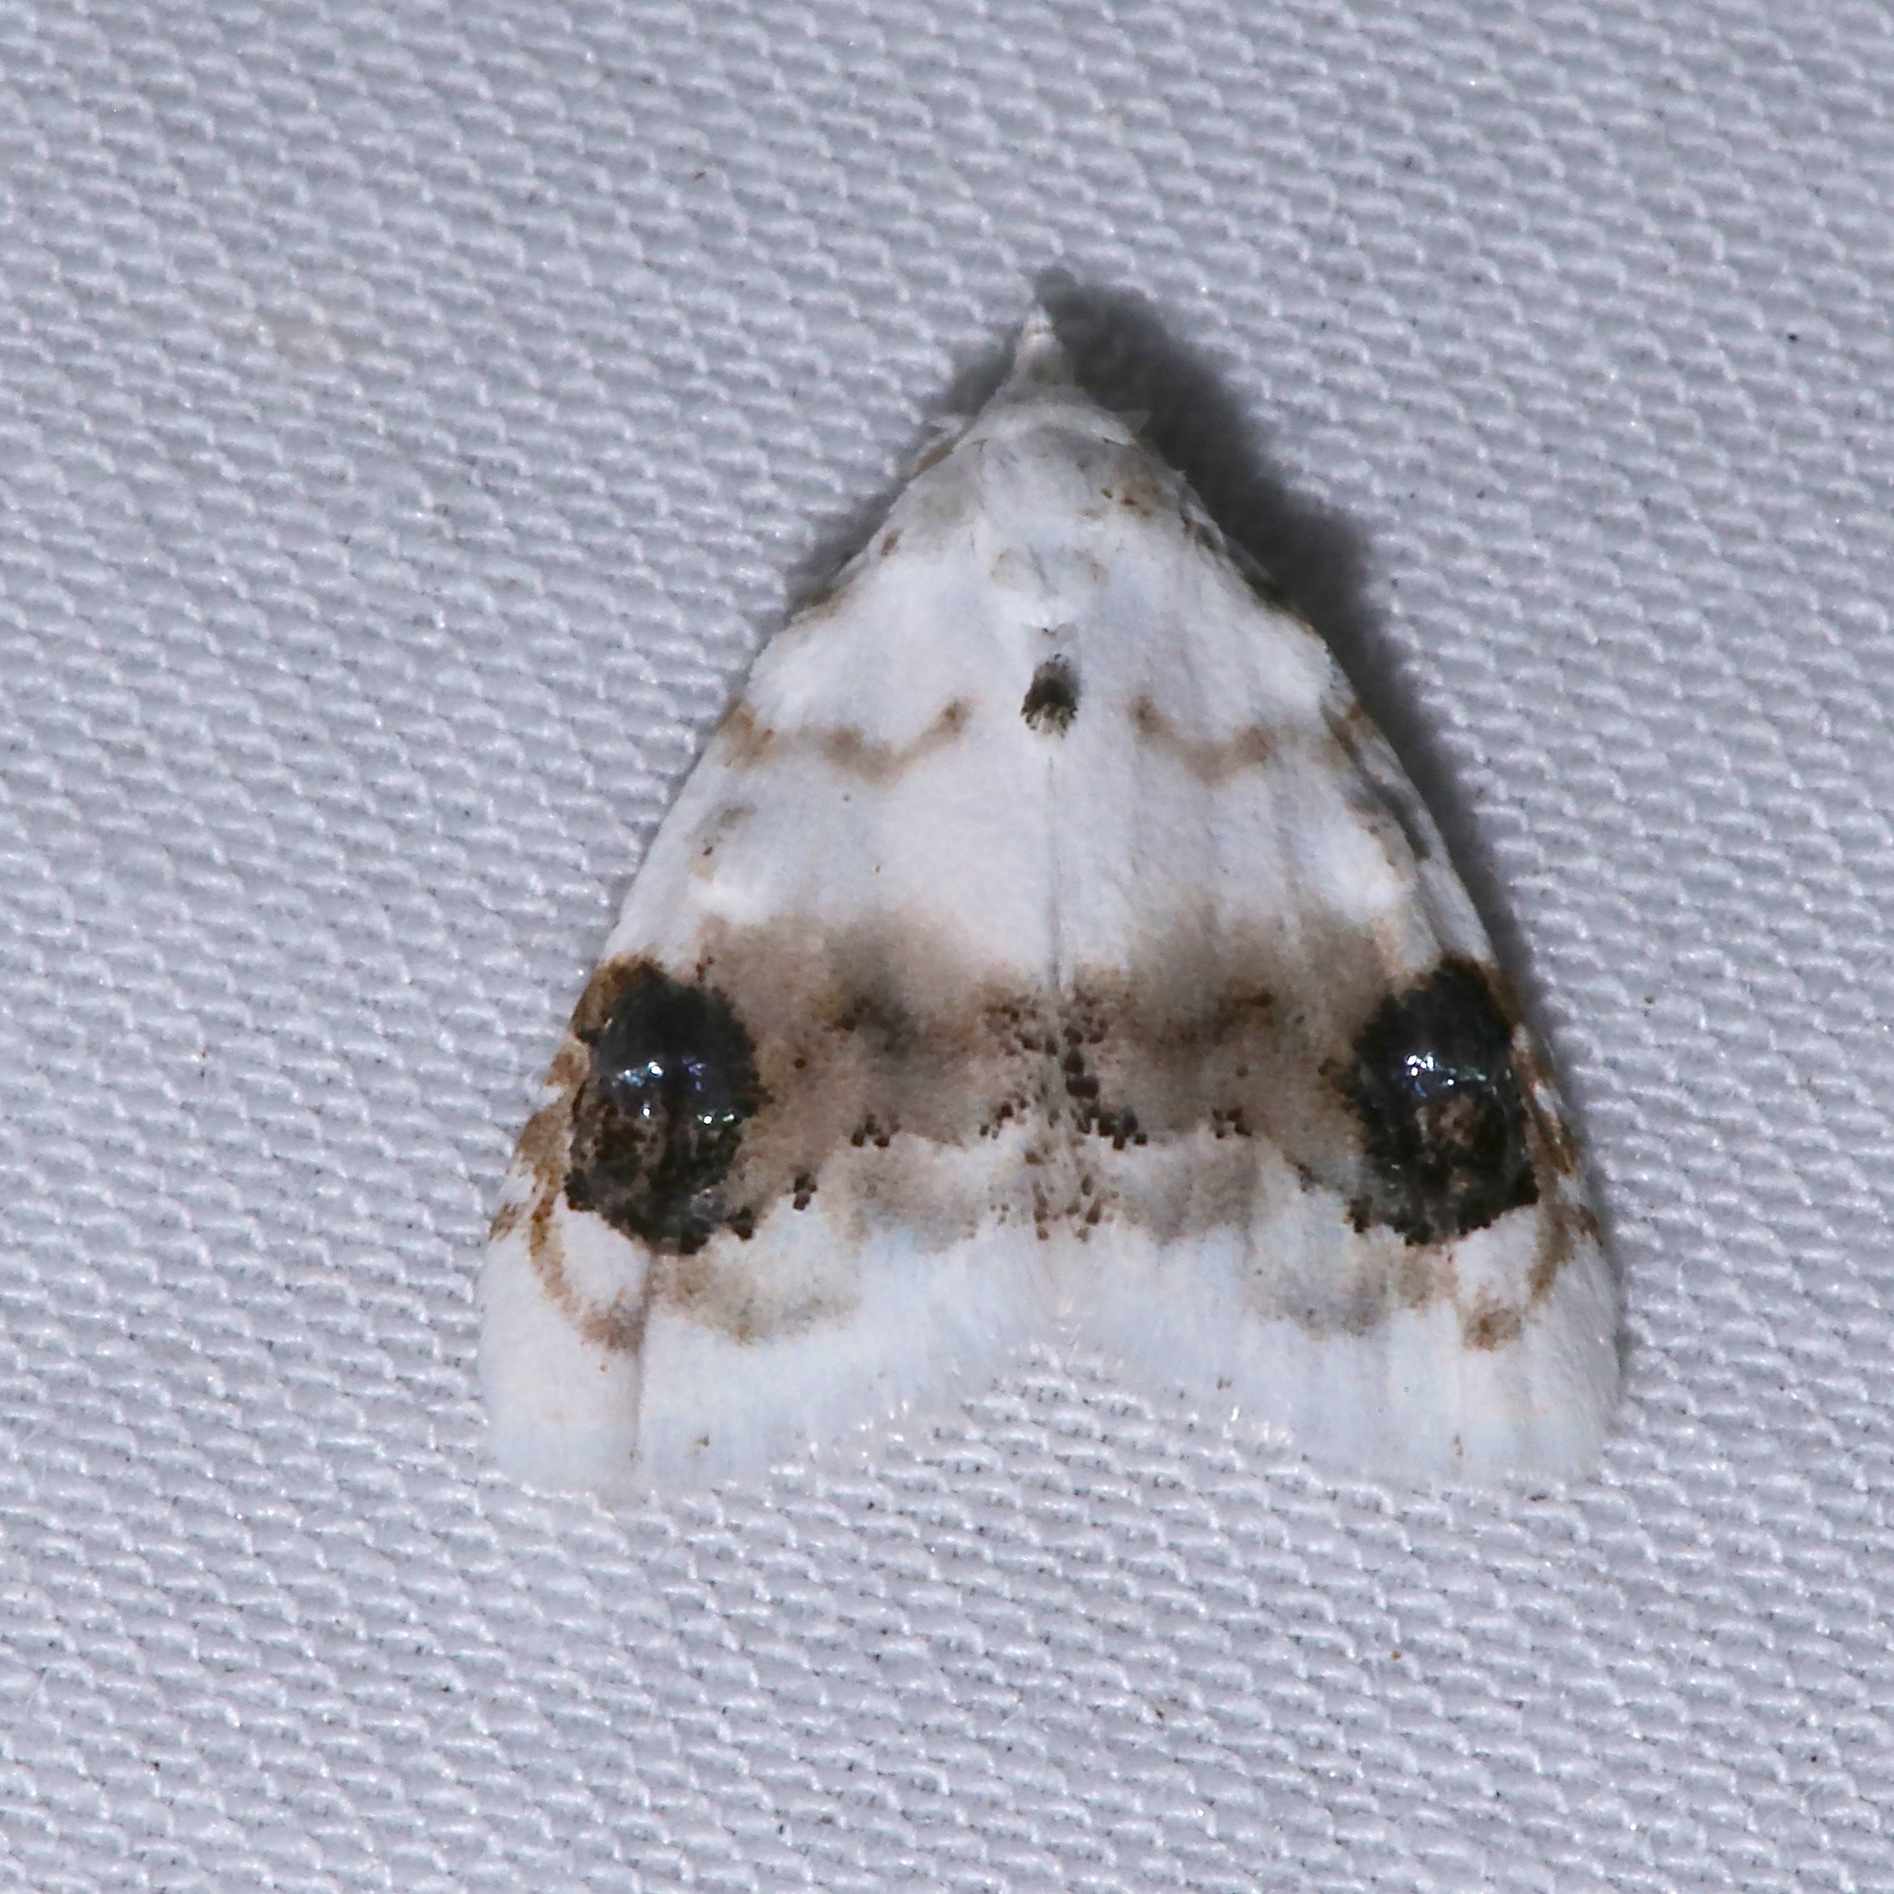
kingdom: Animalia
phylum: Arthropoda
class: Insecta
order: Lepidoptera
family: Nolidae
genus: Nola
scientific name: Nola cilicoides
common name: Blurry-patched nola moth
